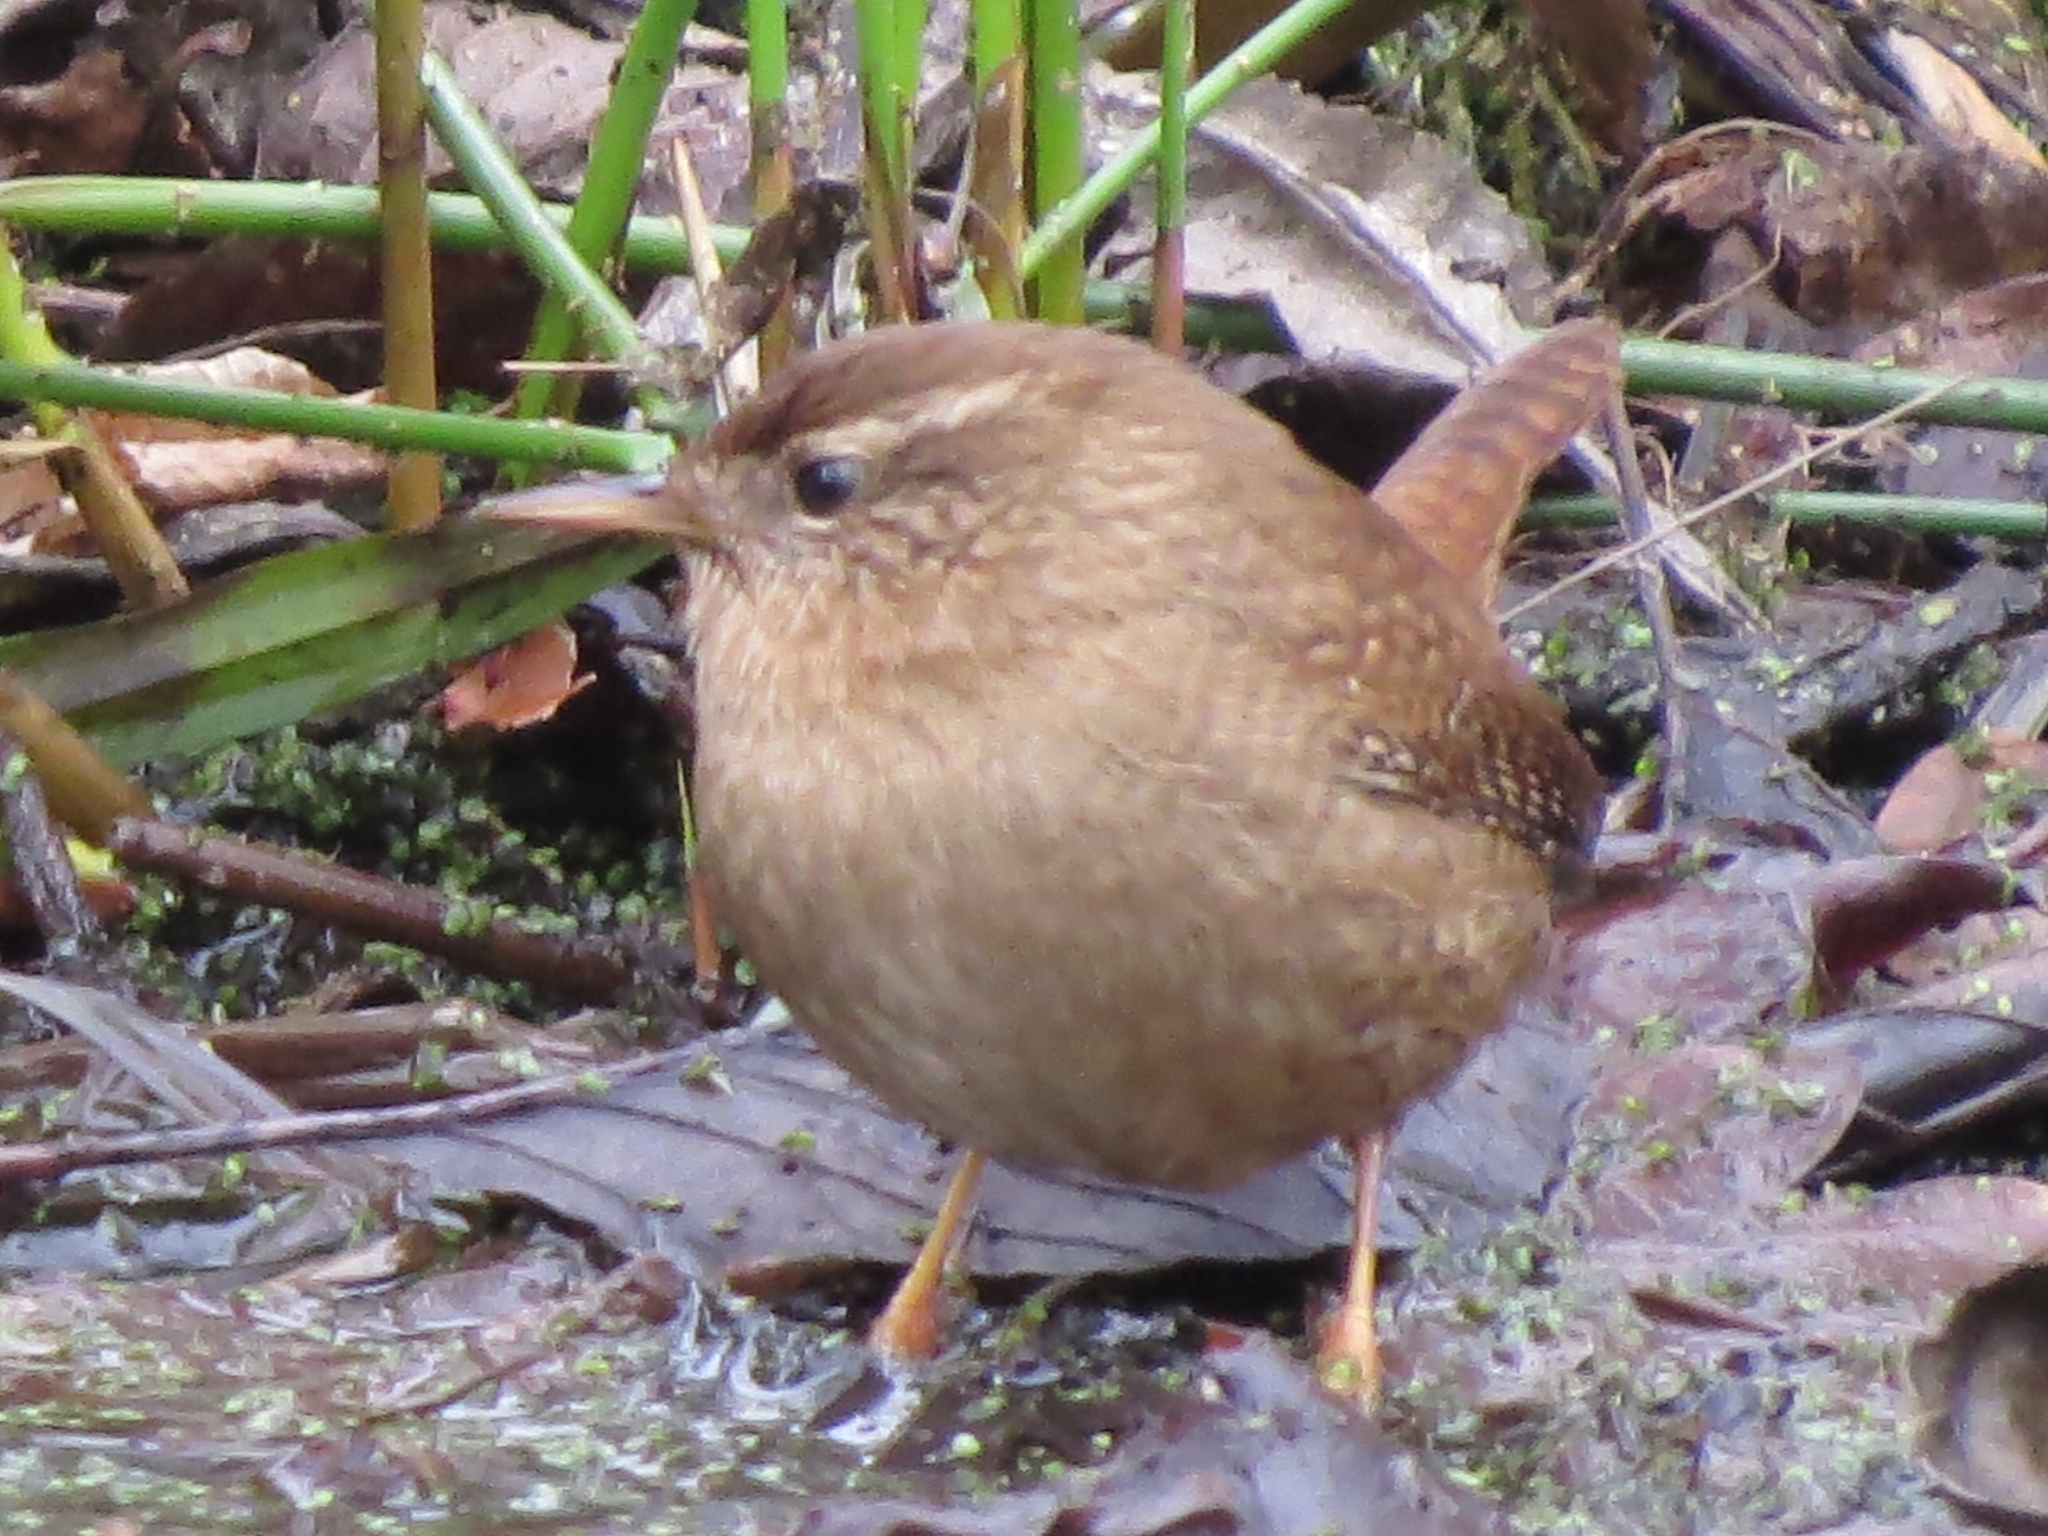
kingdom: Animalia
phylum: Chordata
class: Aves
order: Passeriformes
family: Troglodytidae
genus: Troglodytes
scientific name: Troglodytes troglodytes
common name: Eurasian wren
